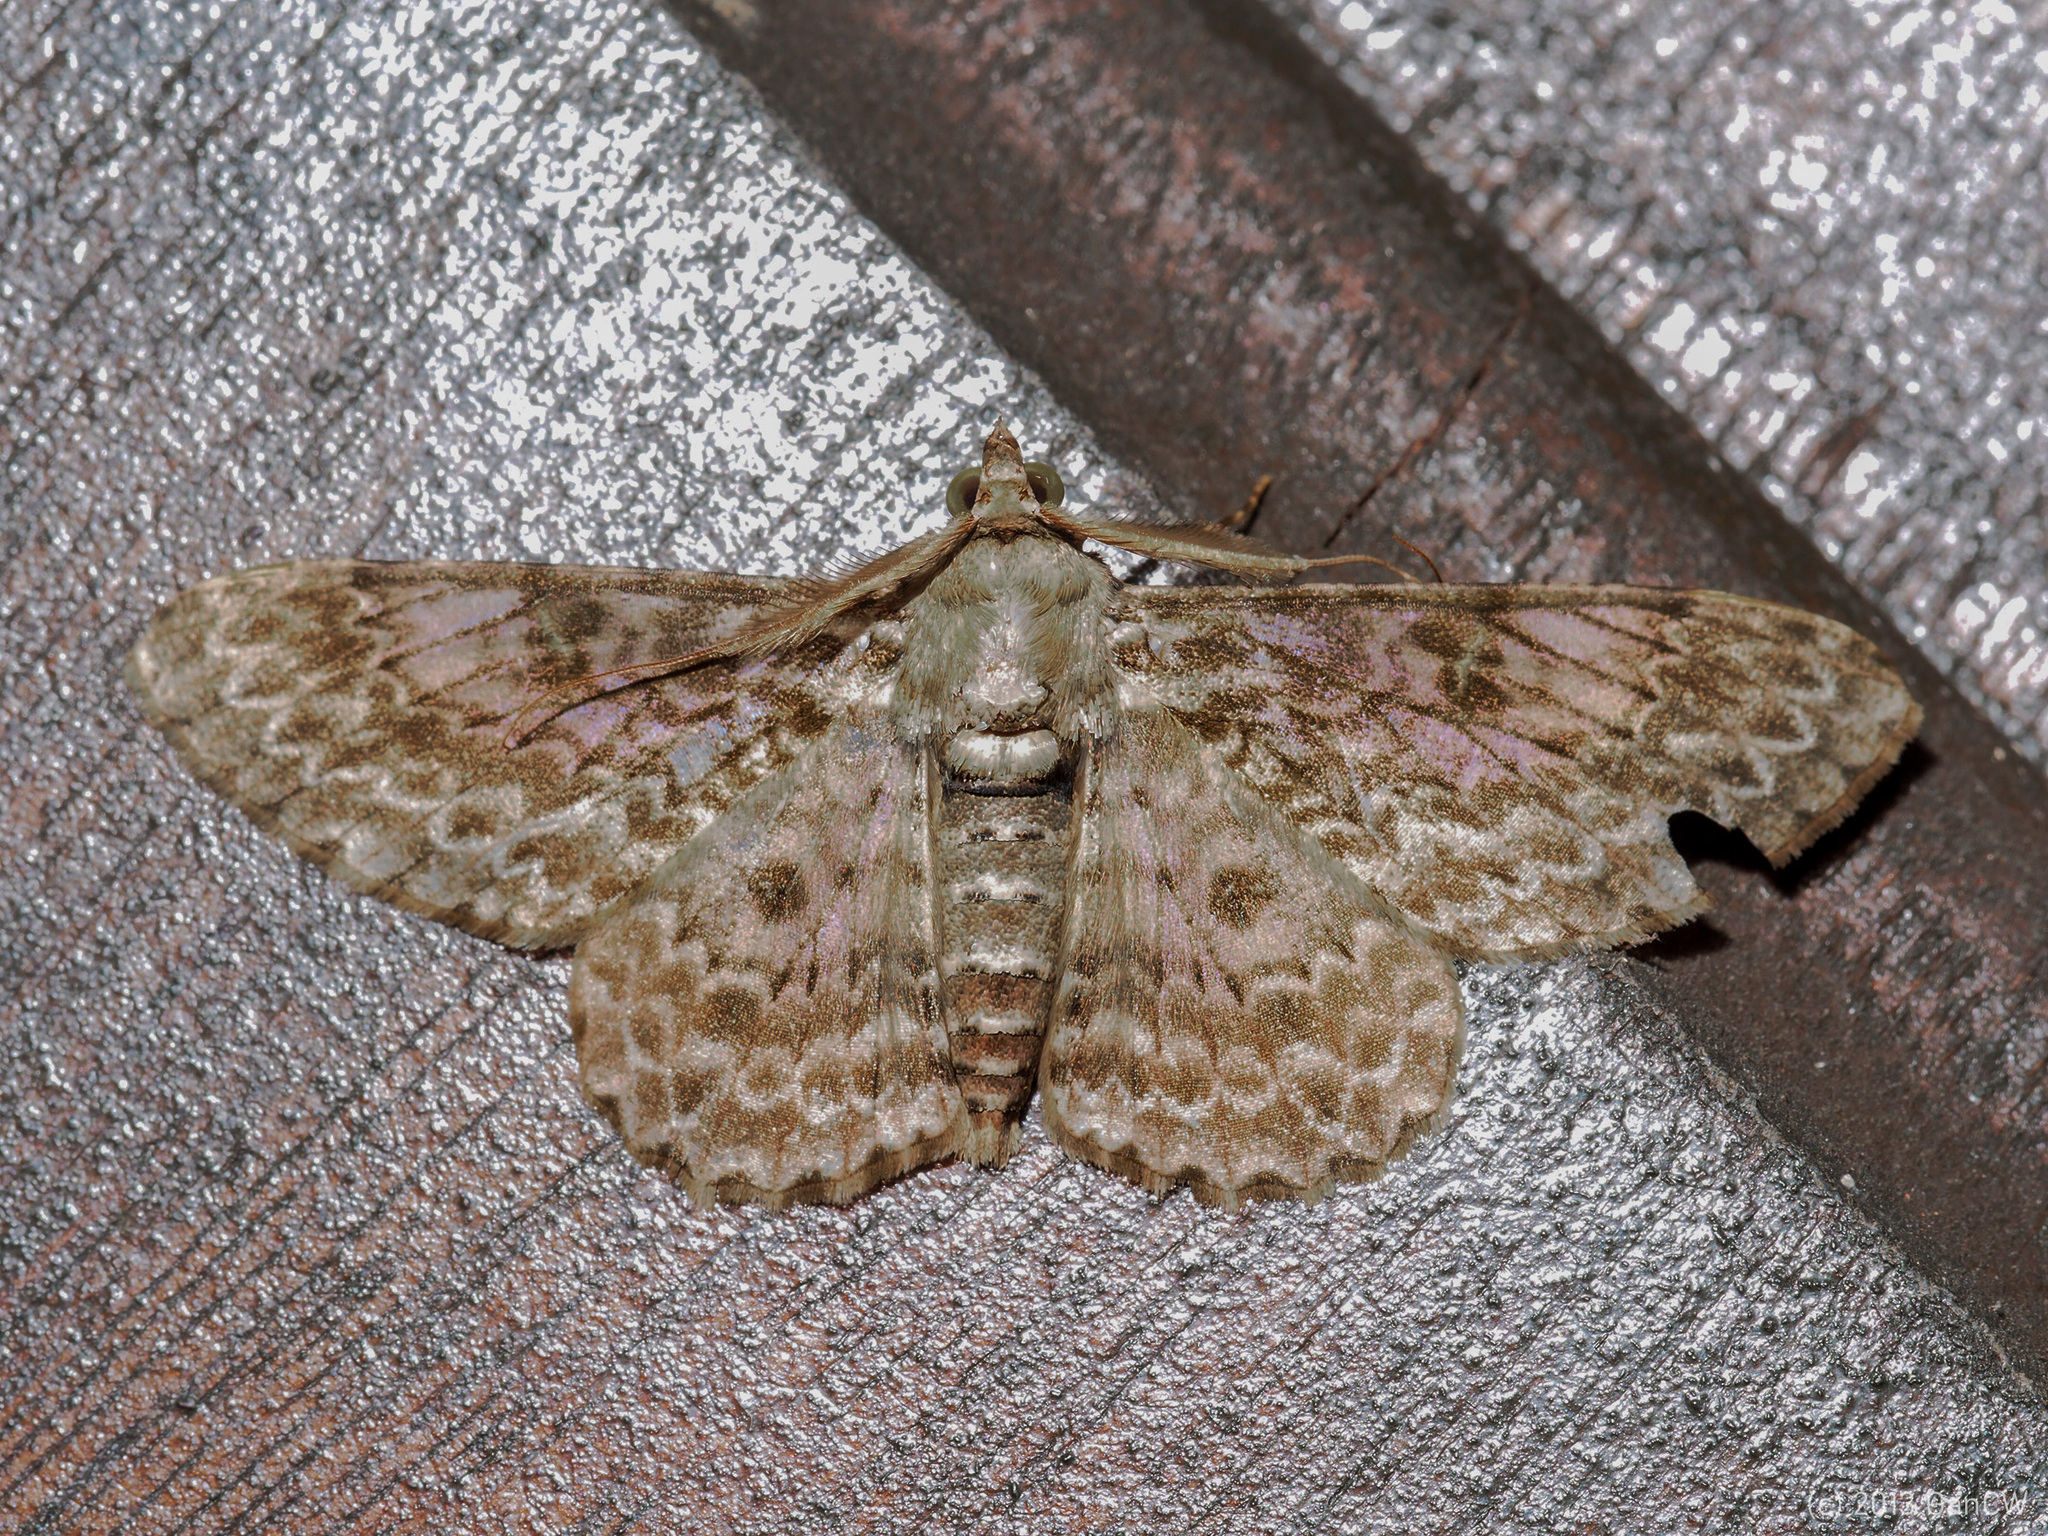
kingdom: Animalia
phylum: Arthropoda
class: Insecta
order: Lepidoptera
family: Geometridae
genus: Cleora
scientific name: Cleora propulsaria
